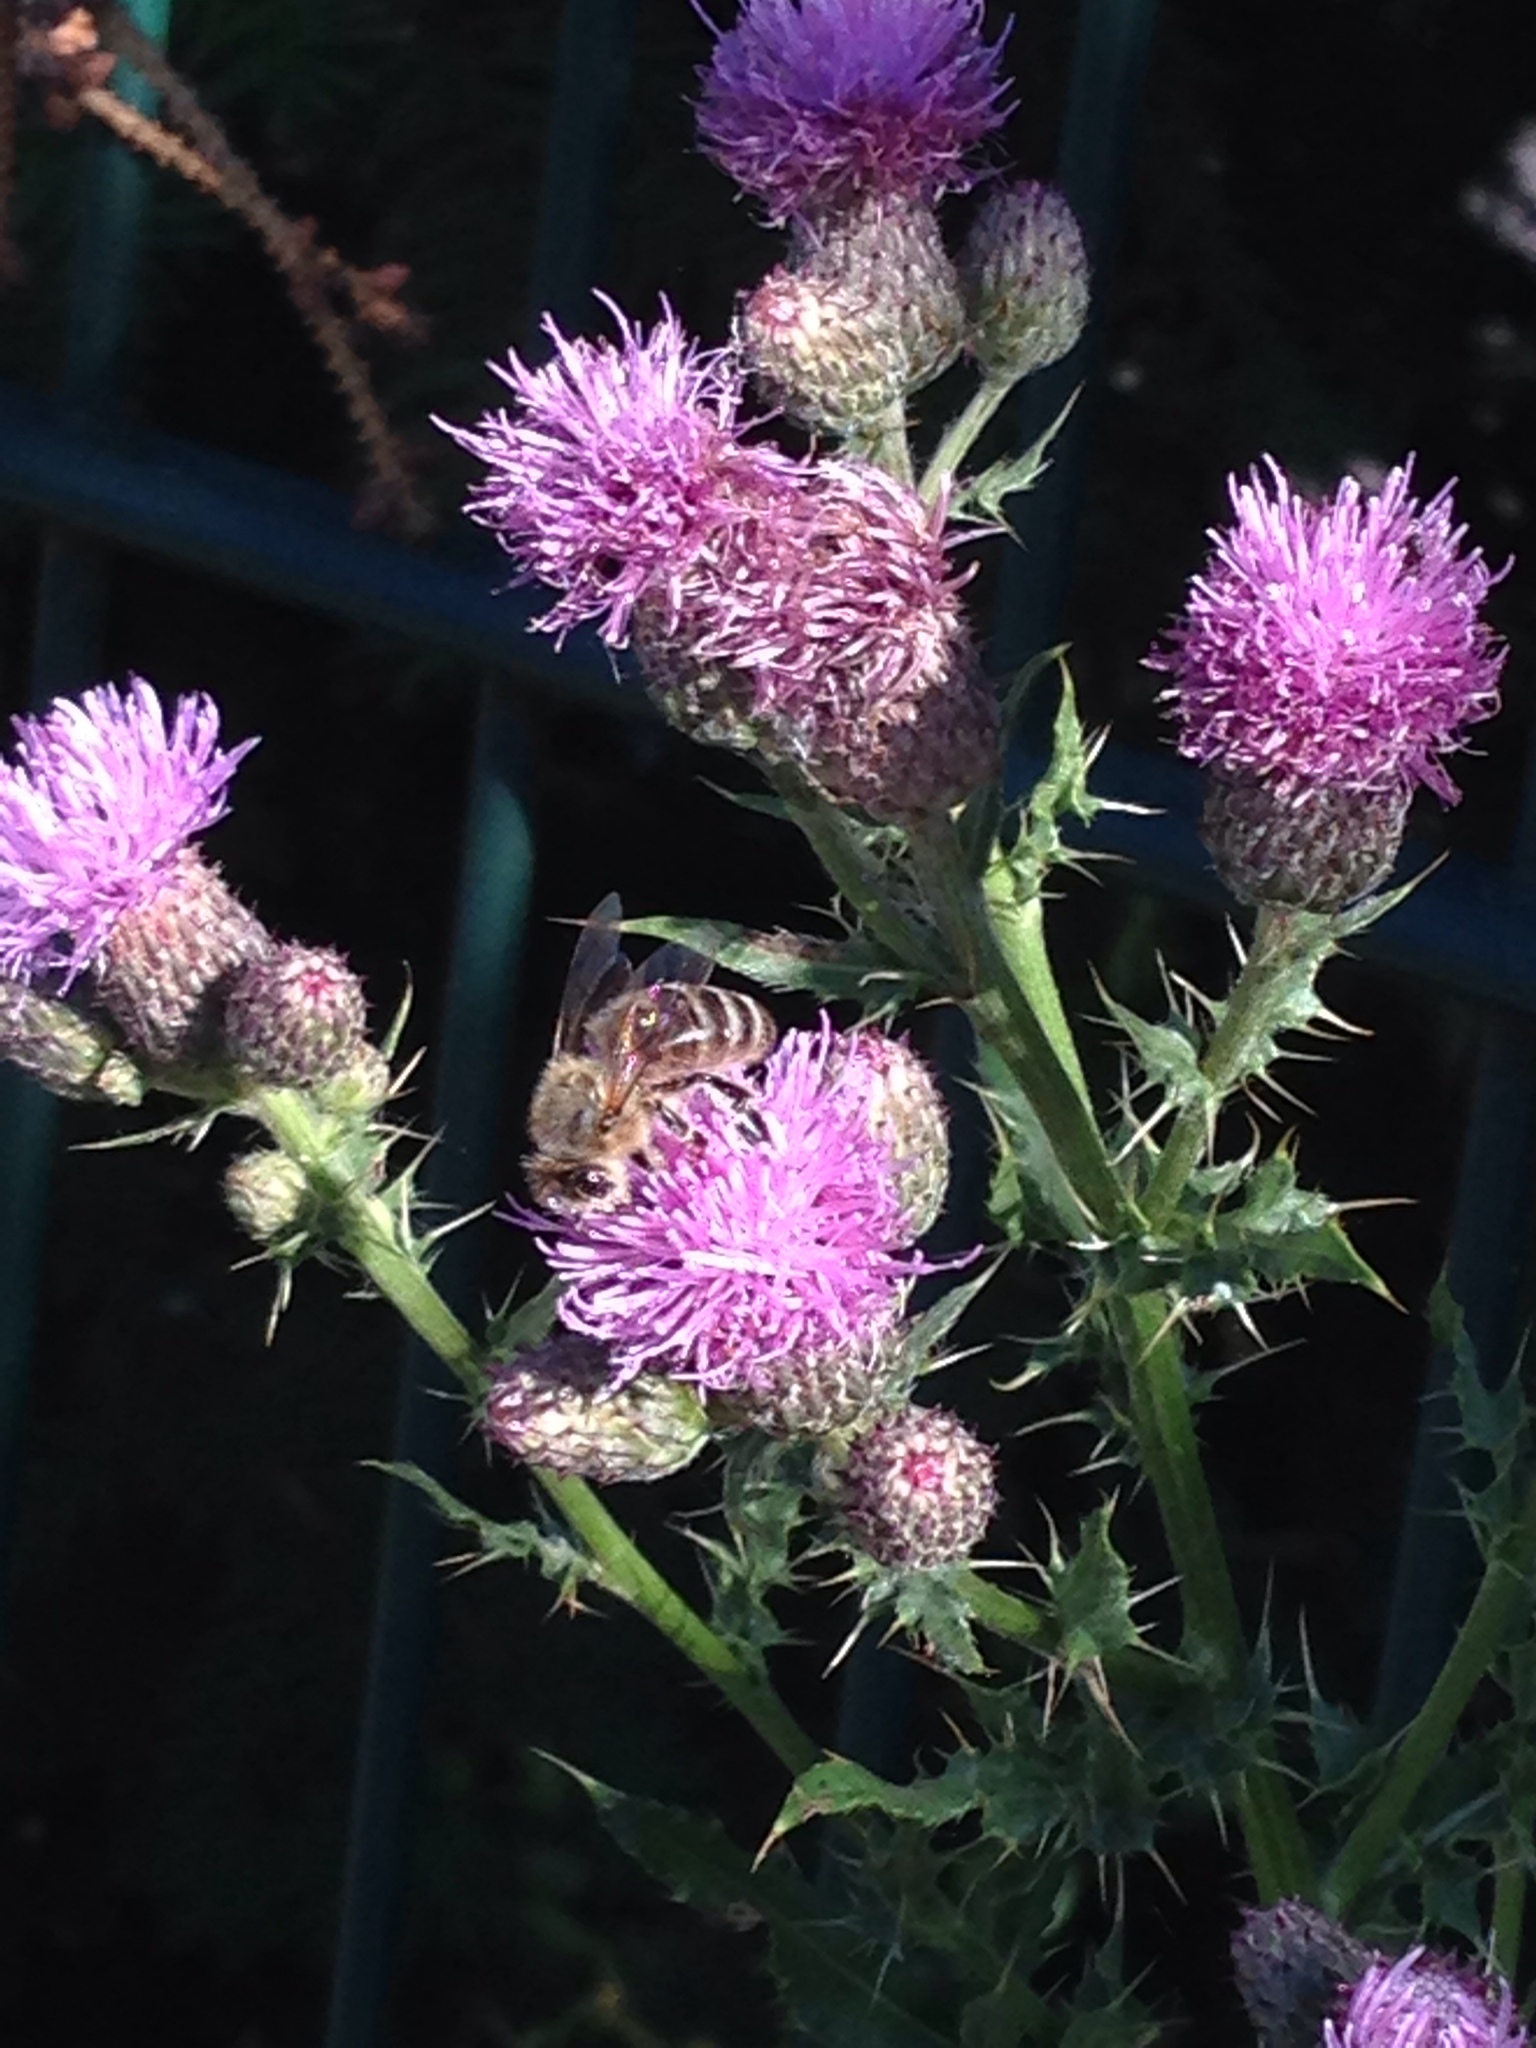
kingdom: Animalia
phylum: Arthropoda
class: Insecta
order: Hymenoptera
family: Apidae
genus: Apis
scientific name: Apis mellifera
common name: Honey bee
